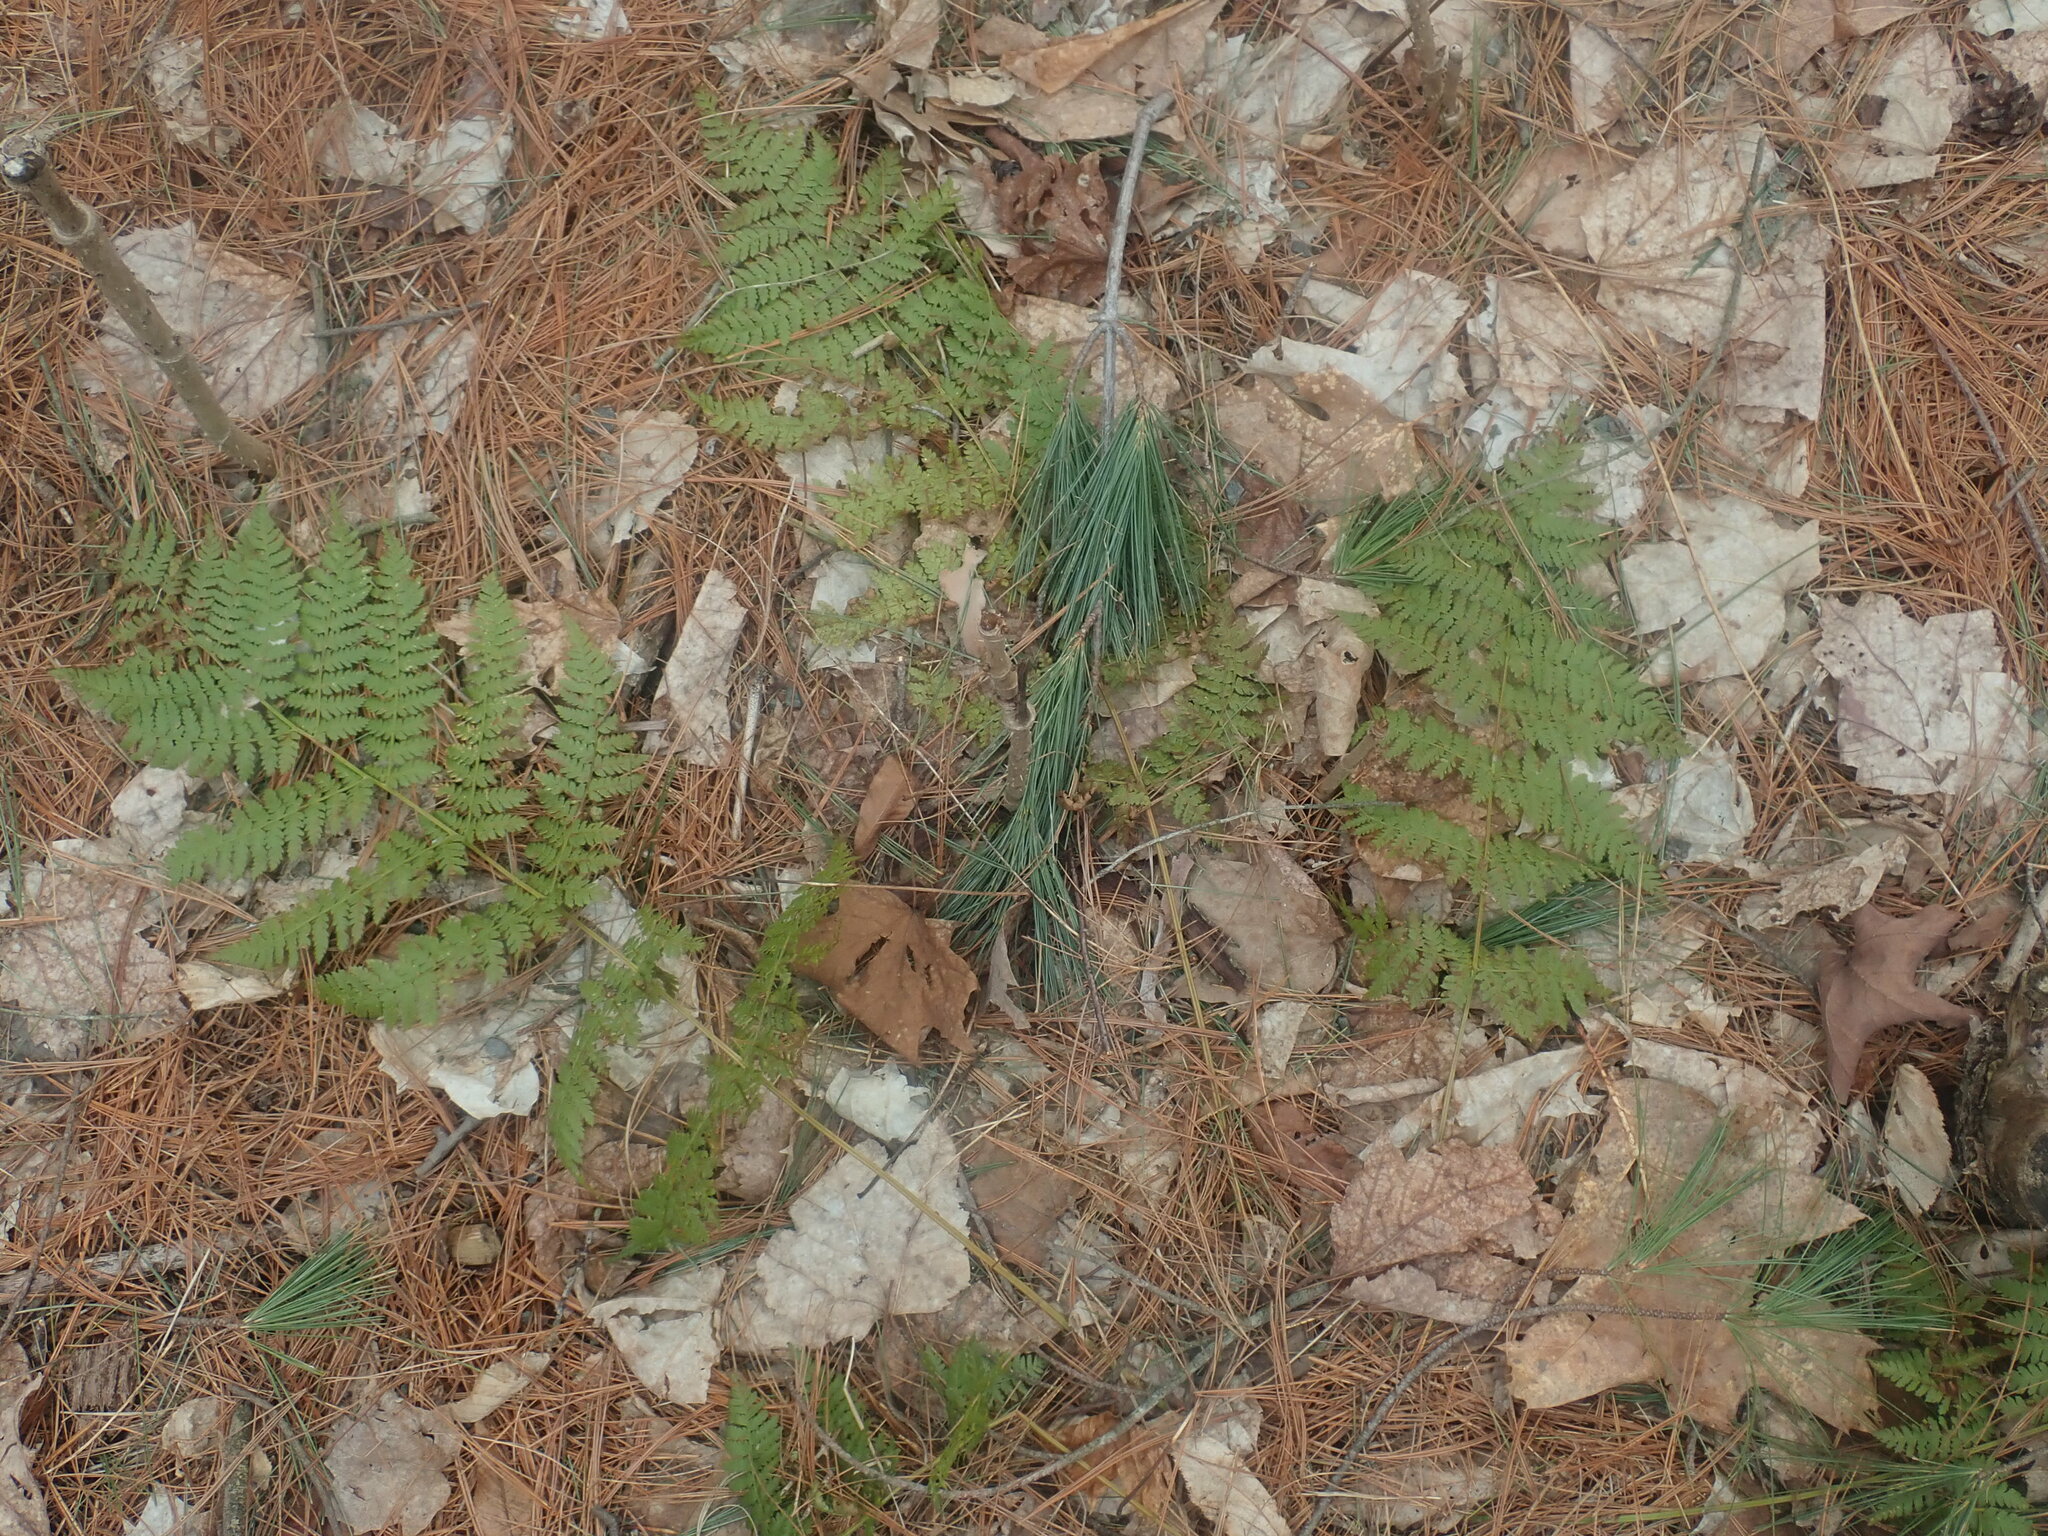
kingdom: Plantae
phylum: Tracheophyta
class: Polypodiopsida
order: Polypodiales
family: Dryopteridaceae
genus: Dryopteris
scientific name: Dryopteris intermedia
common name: Evergreen wood fern
